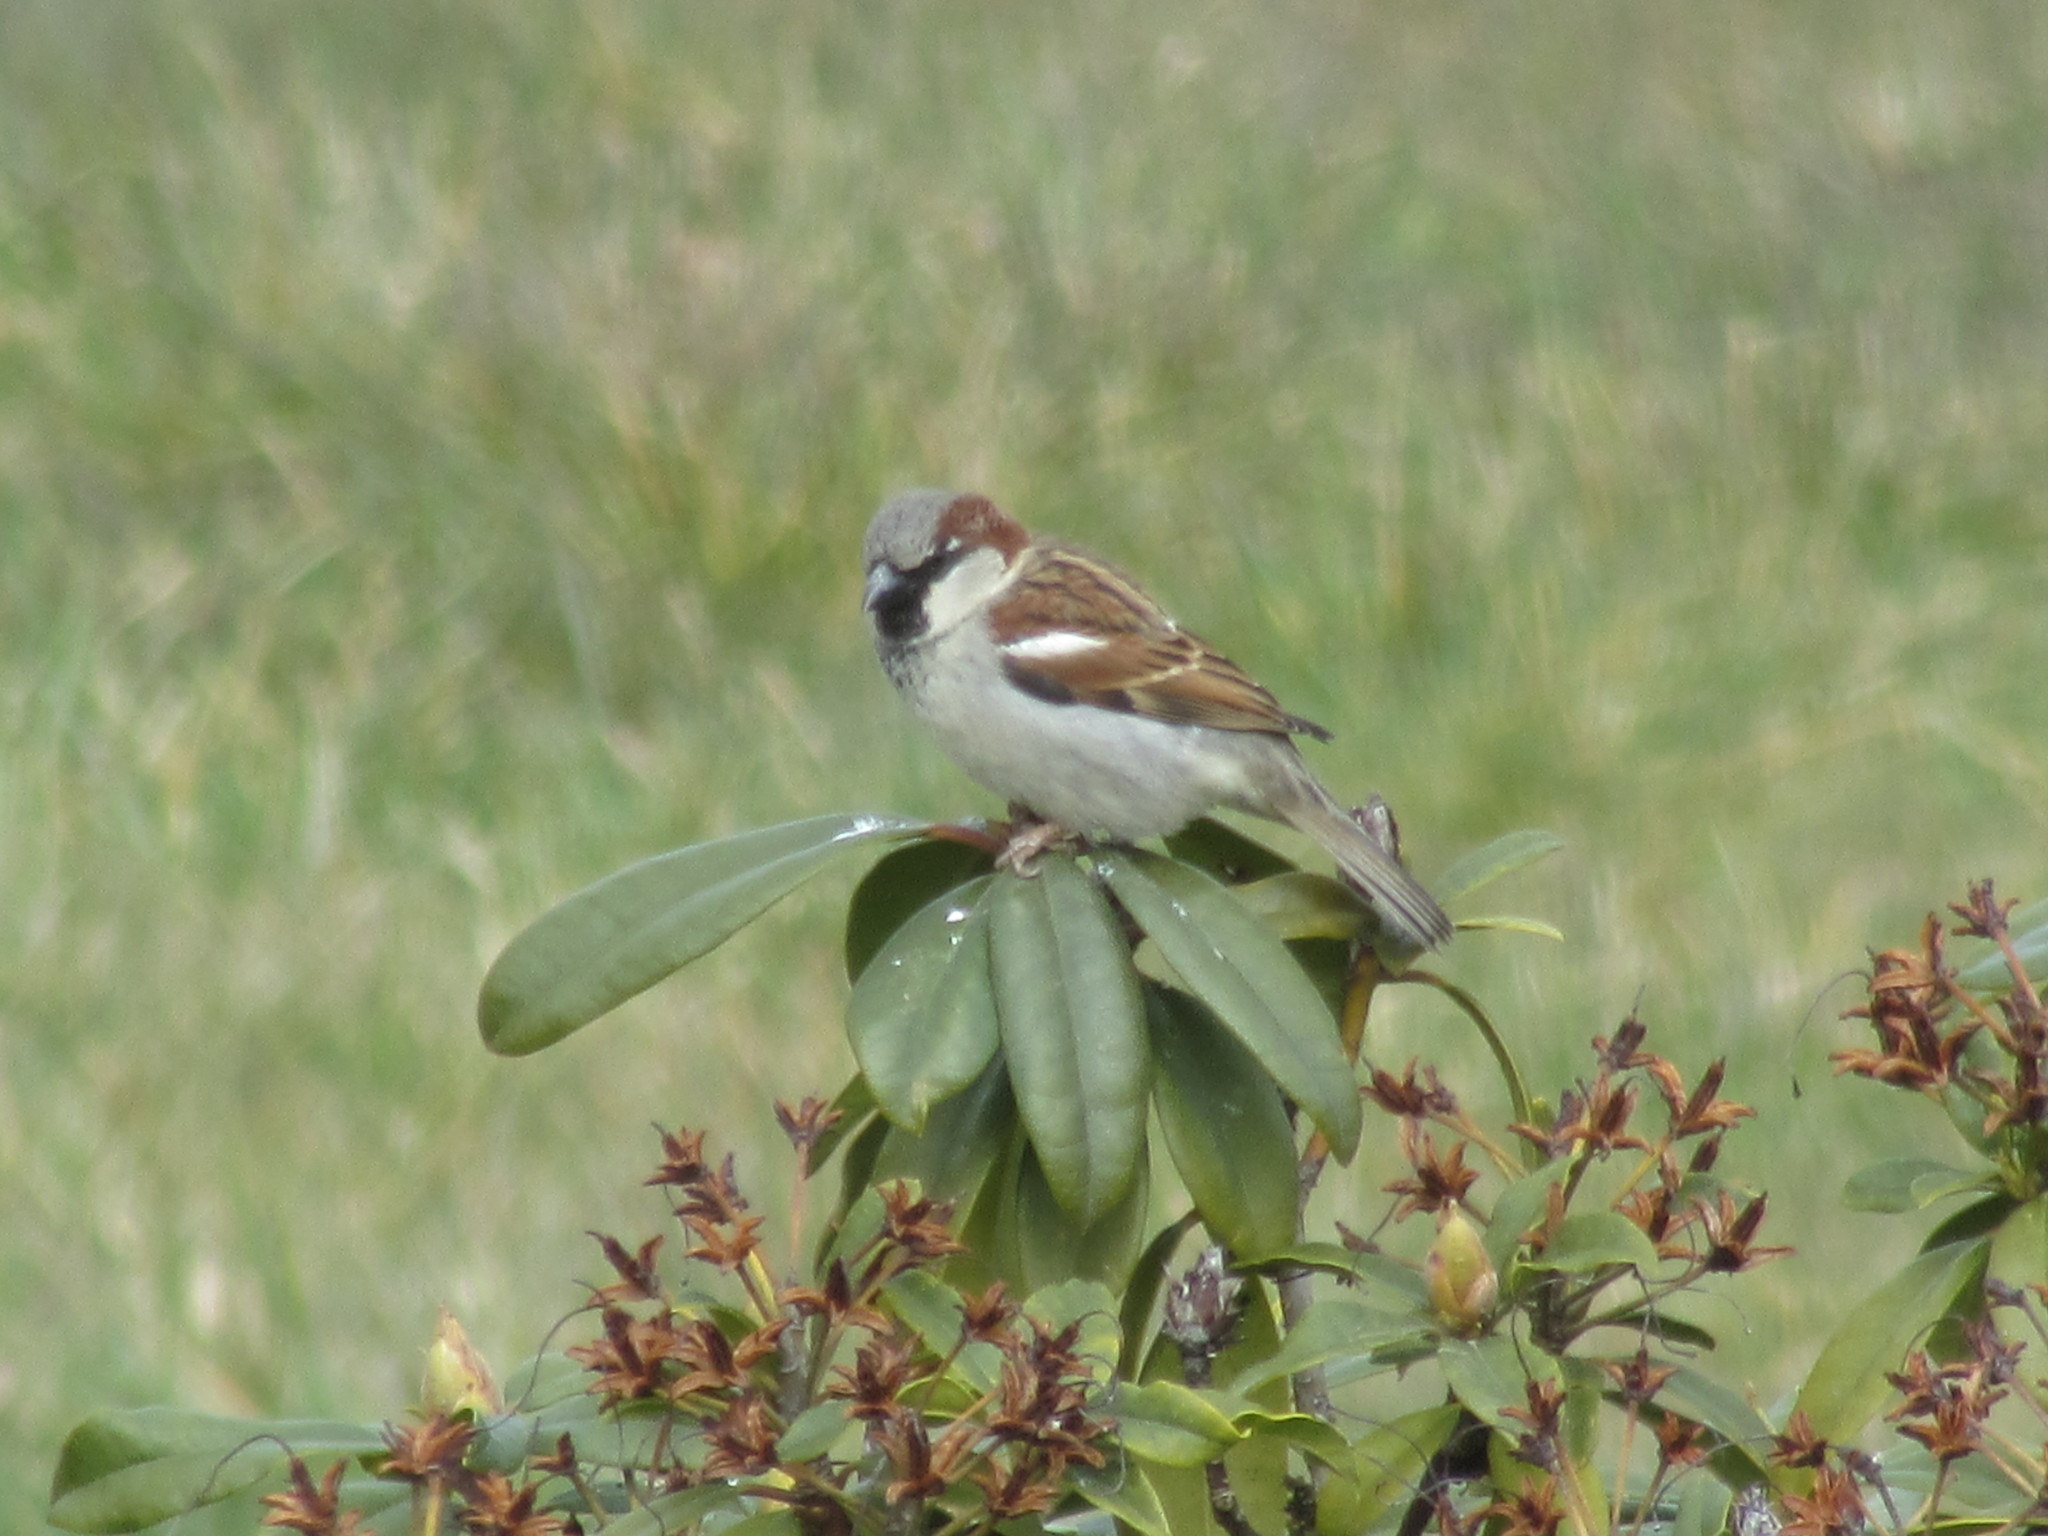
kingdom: Animalia
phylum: Chordata
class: Aves
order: Passeriformes
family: Passeridae
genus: Passer
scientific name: Passer domesticus
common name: House sparrow
